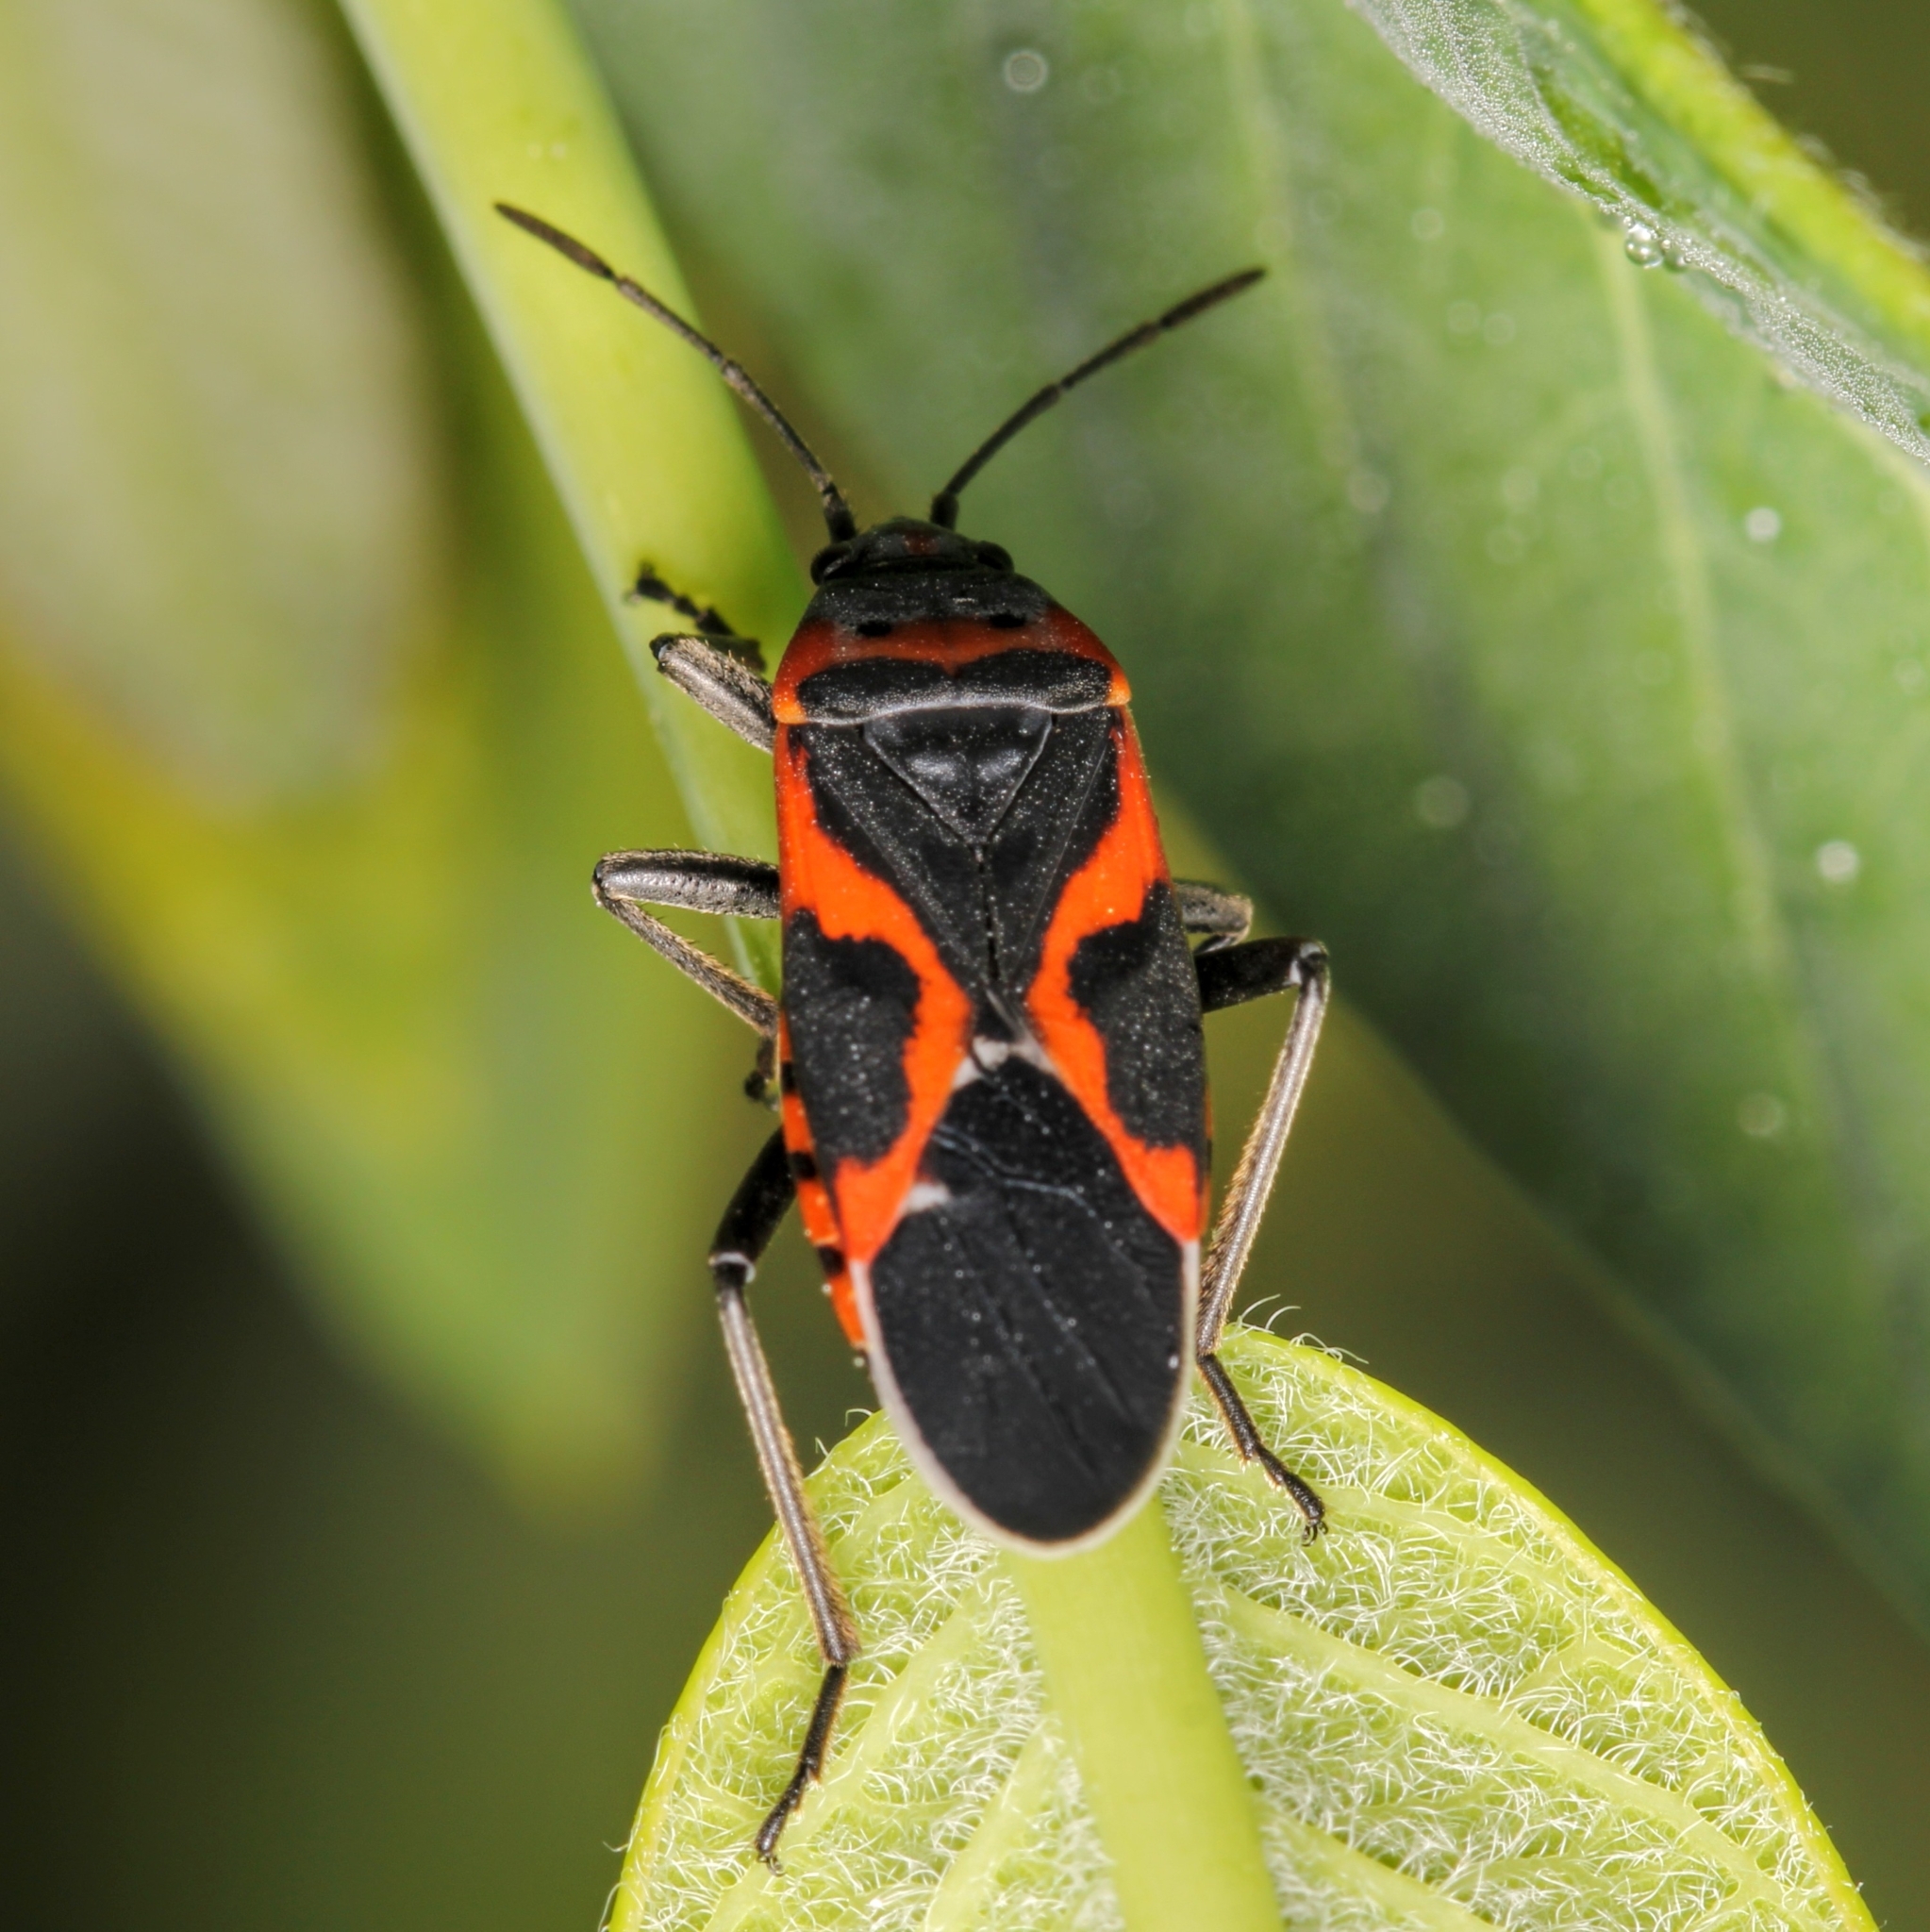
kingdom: Animalia
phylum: Arthropoda
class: Insecta
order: Hemiptera
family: Lygaeidae
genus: Lygaeus
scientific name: Lygaeus kalmii
